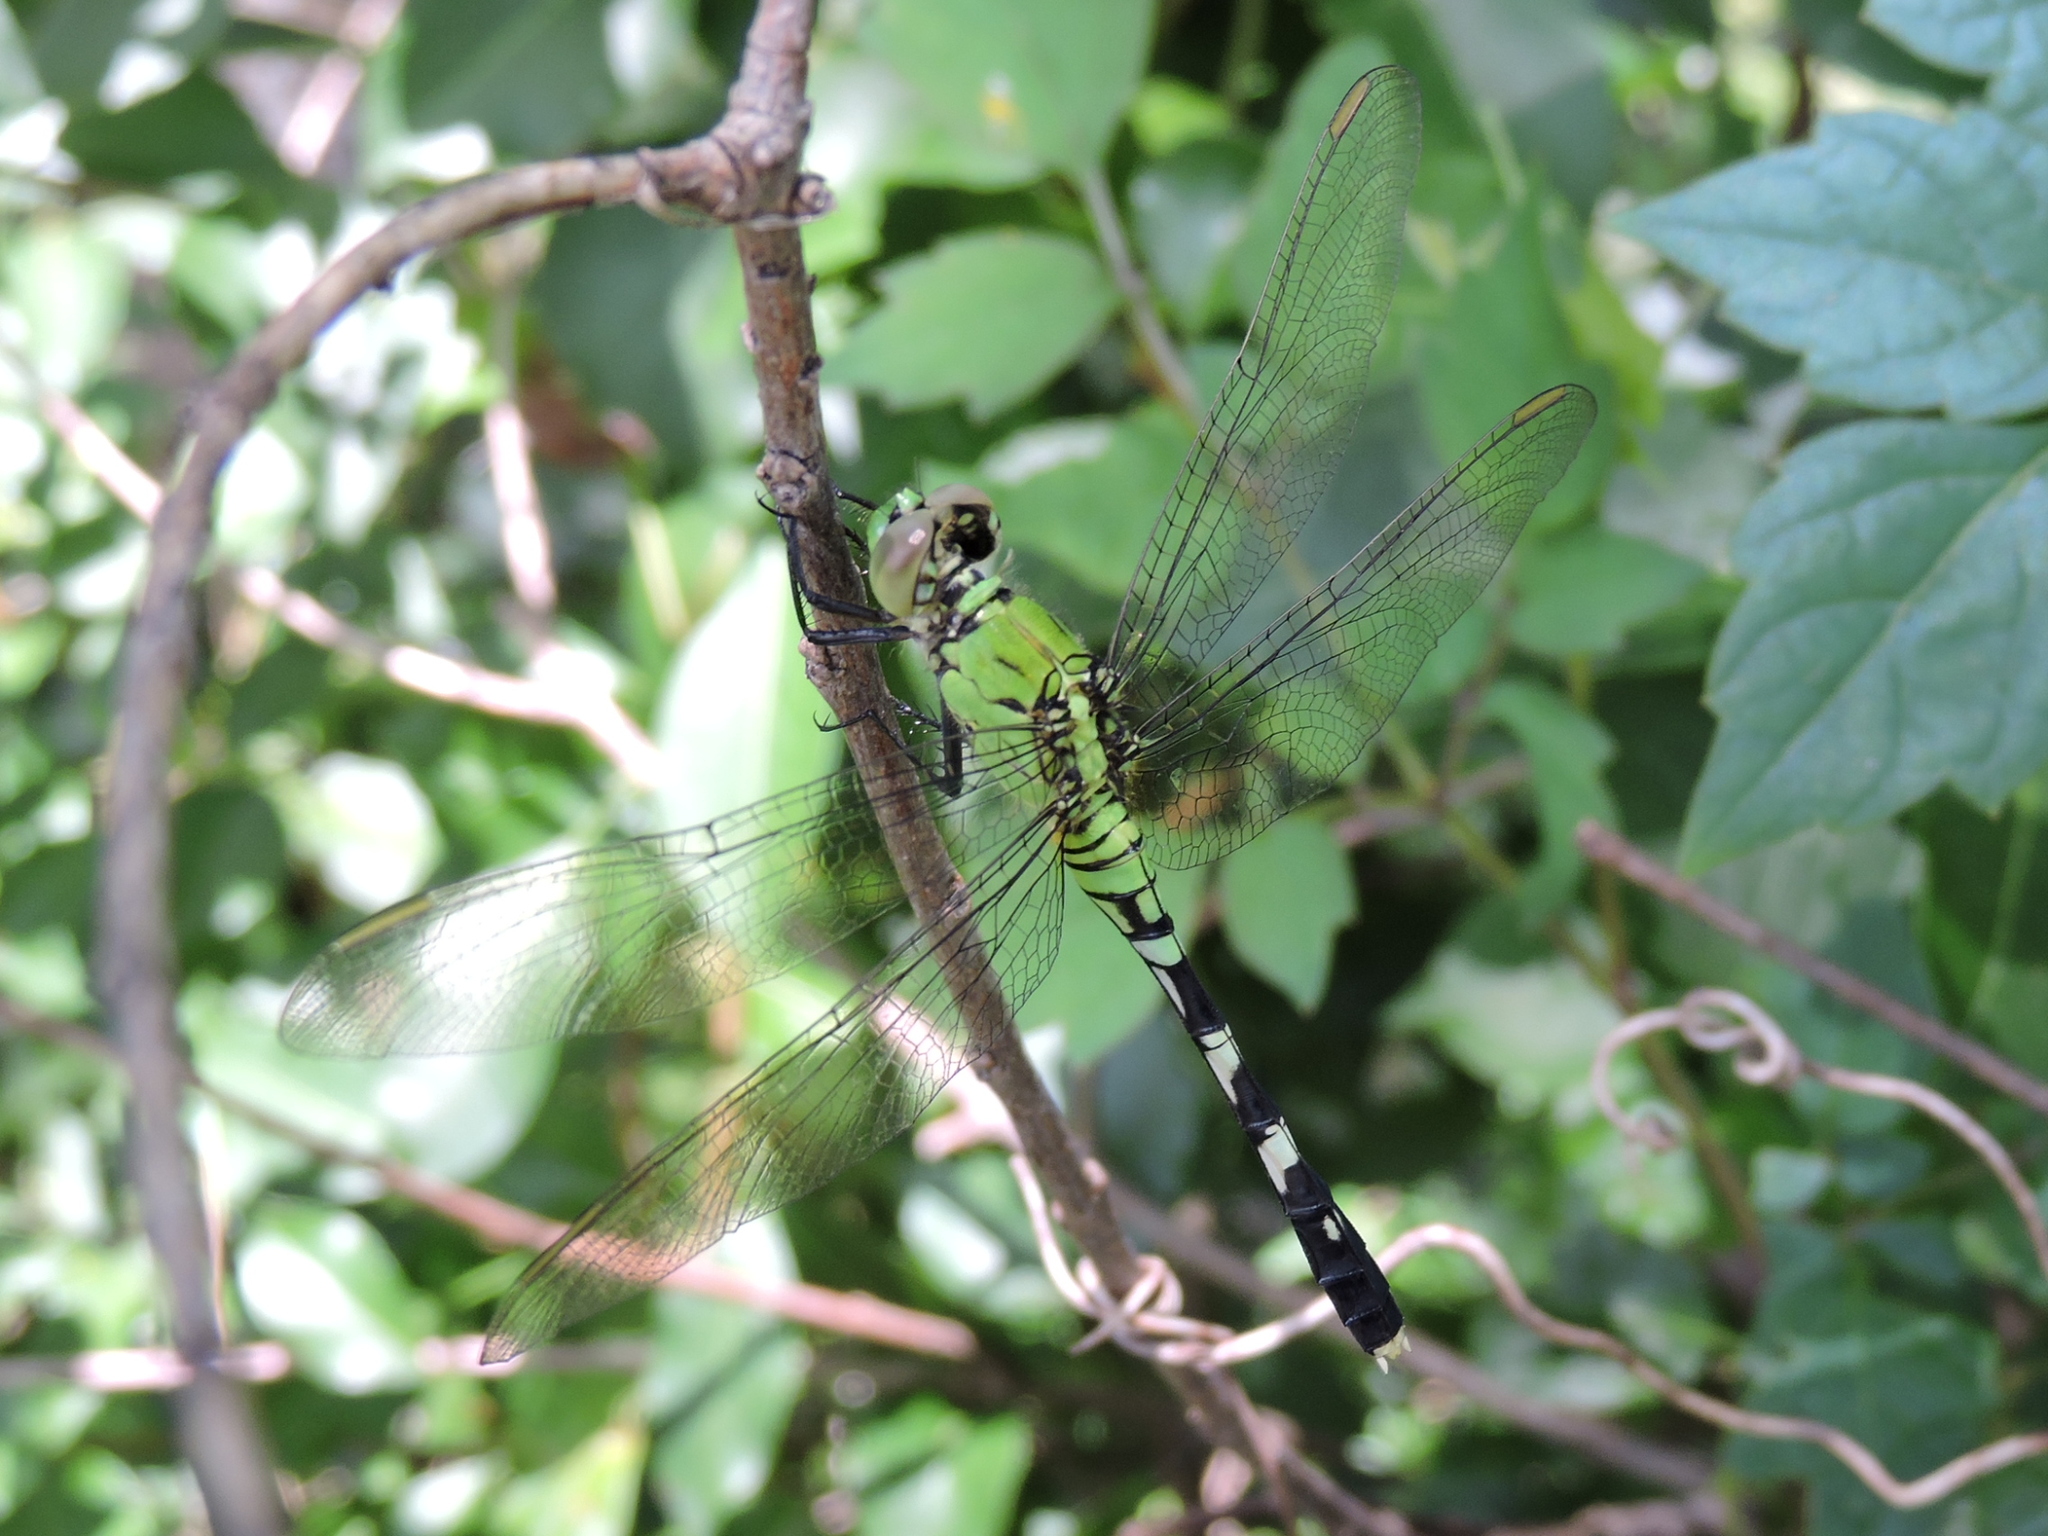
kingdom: Animalia
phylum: Arthropoda
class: Insecta
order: Odonata
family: Libellulidae
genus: Erythemis
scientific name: Erythemis simplicicollis
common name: Eastern pondhawk
